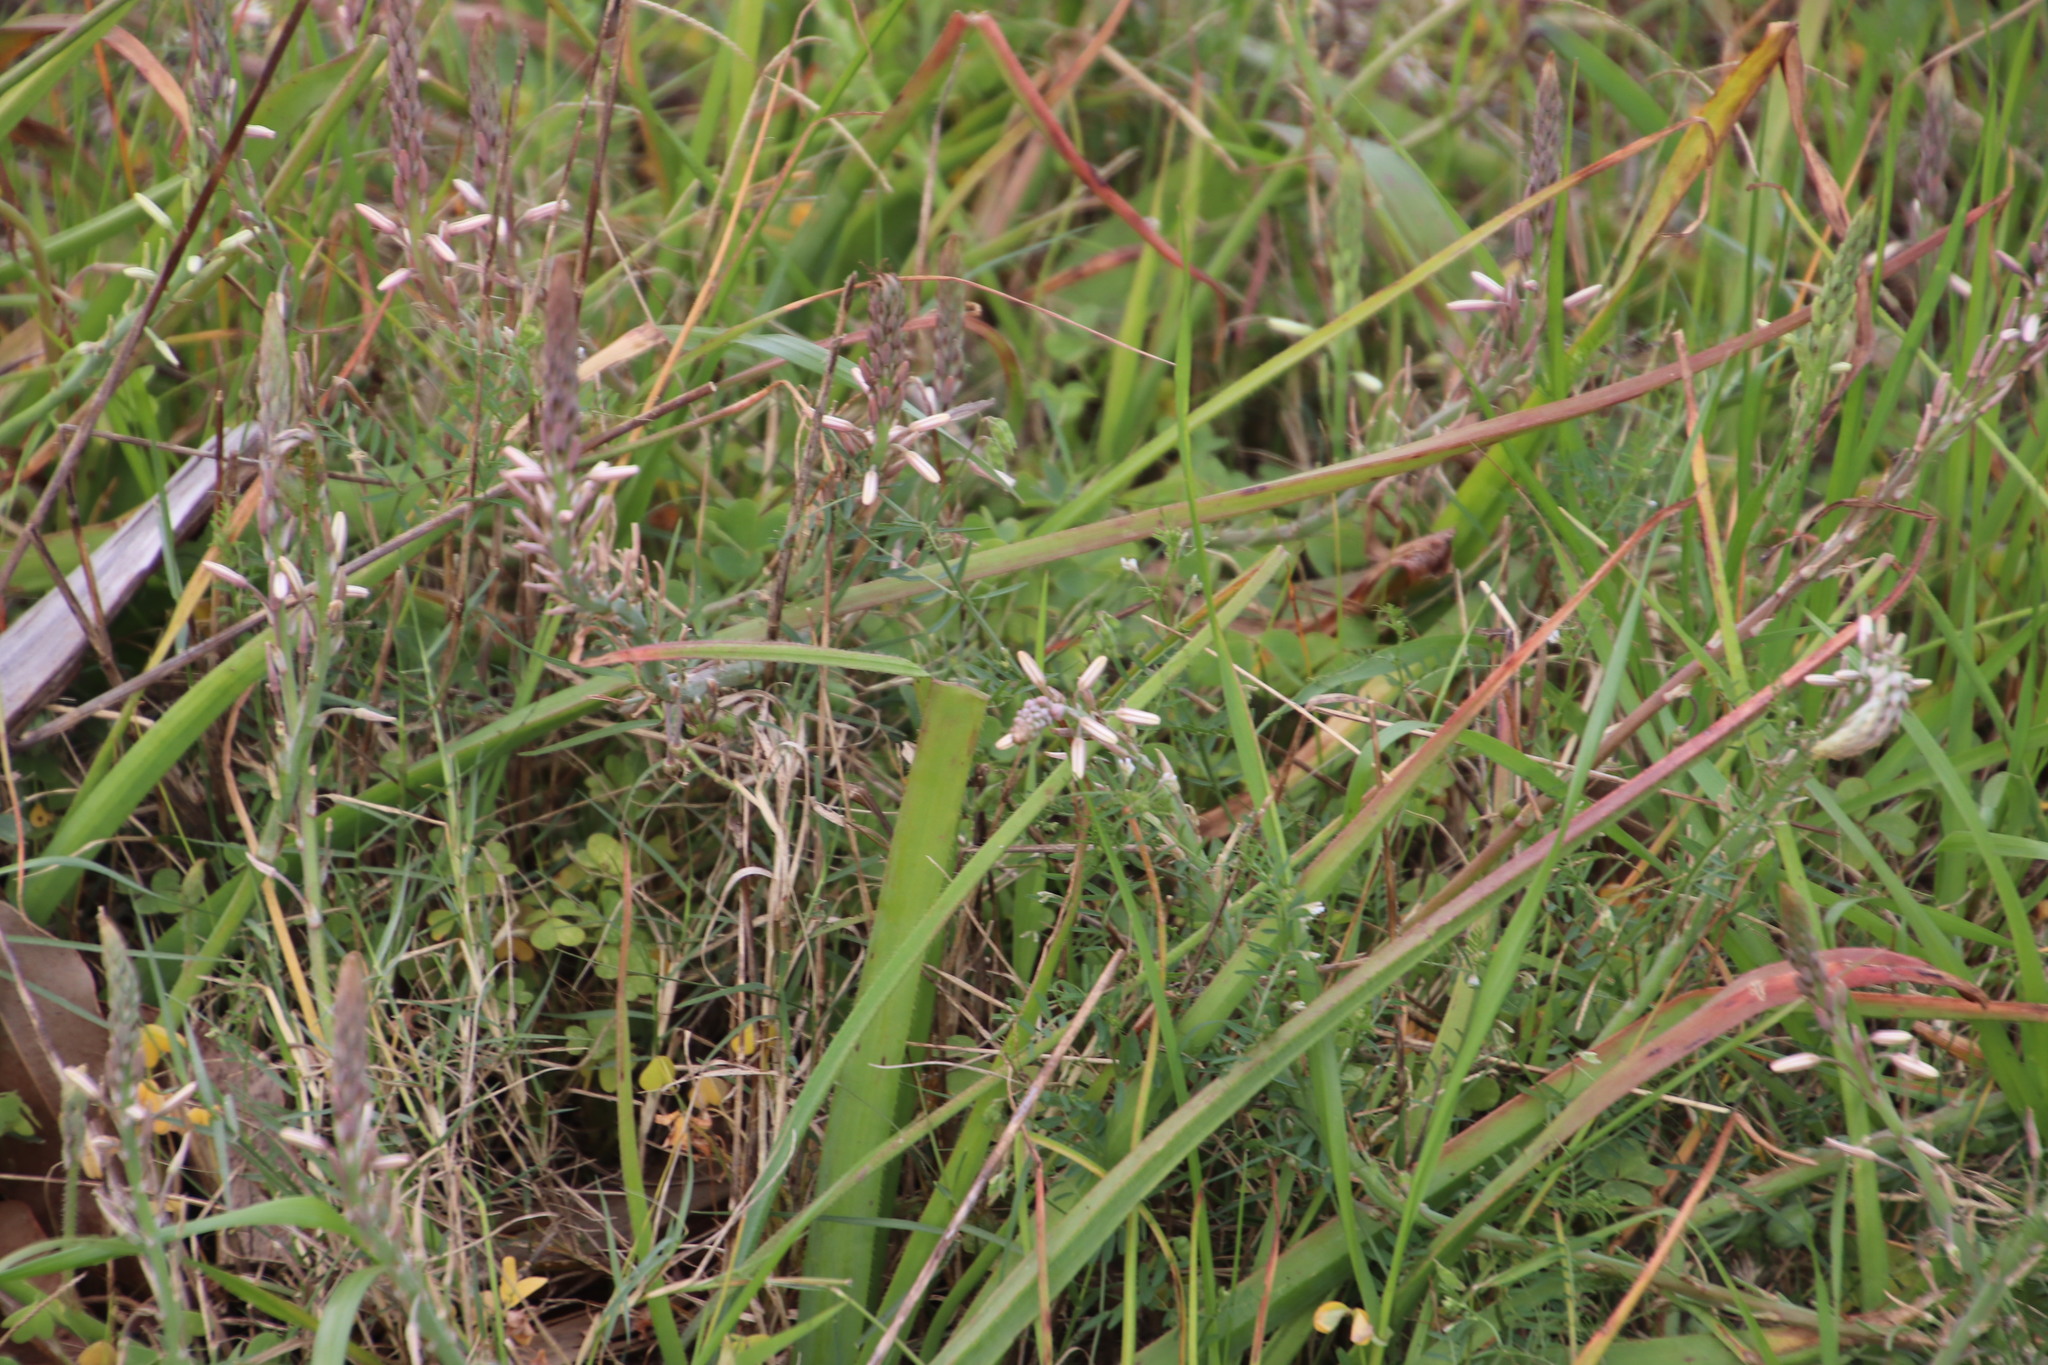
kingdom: Plantae
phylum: Tracheophyta
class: Liliopsida
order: Asparagales
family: Asphodelaceae
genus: Trachyandra
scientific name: Trachyandra ciliata
